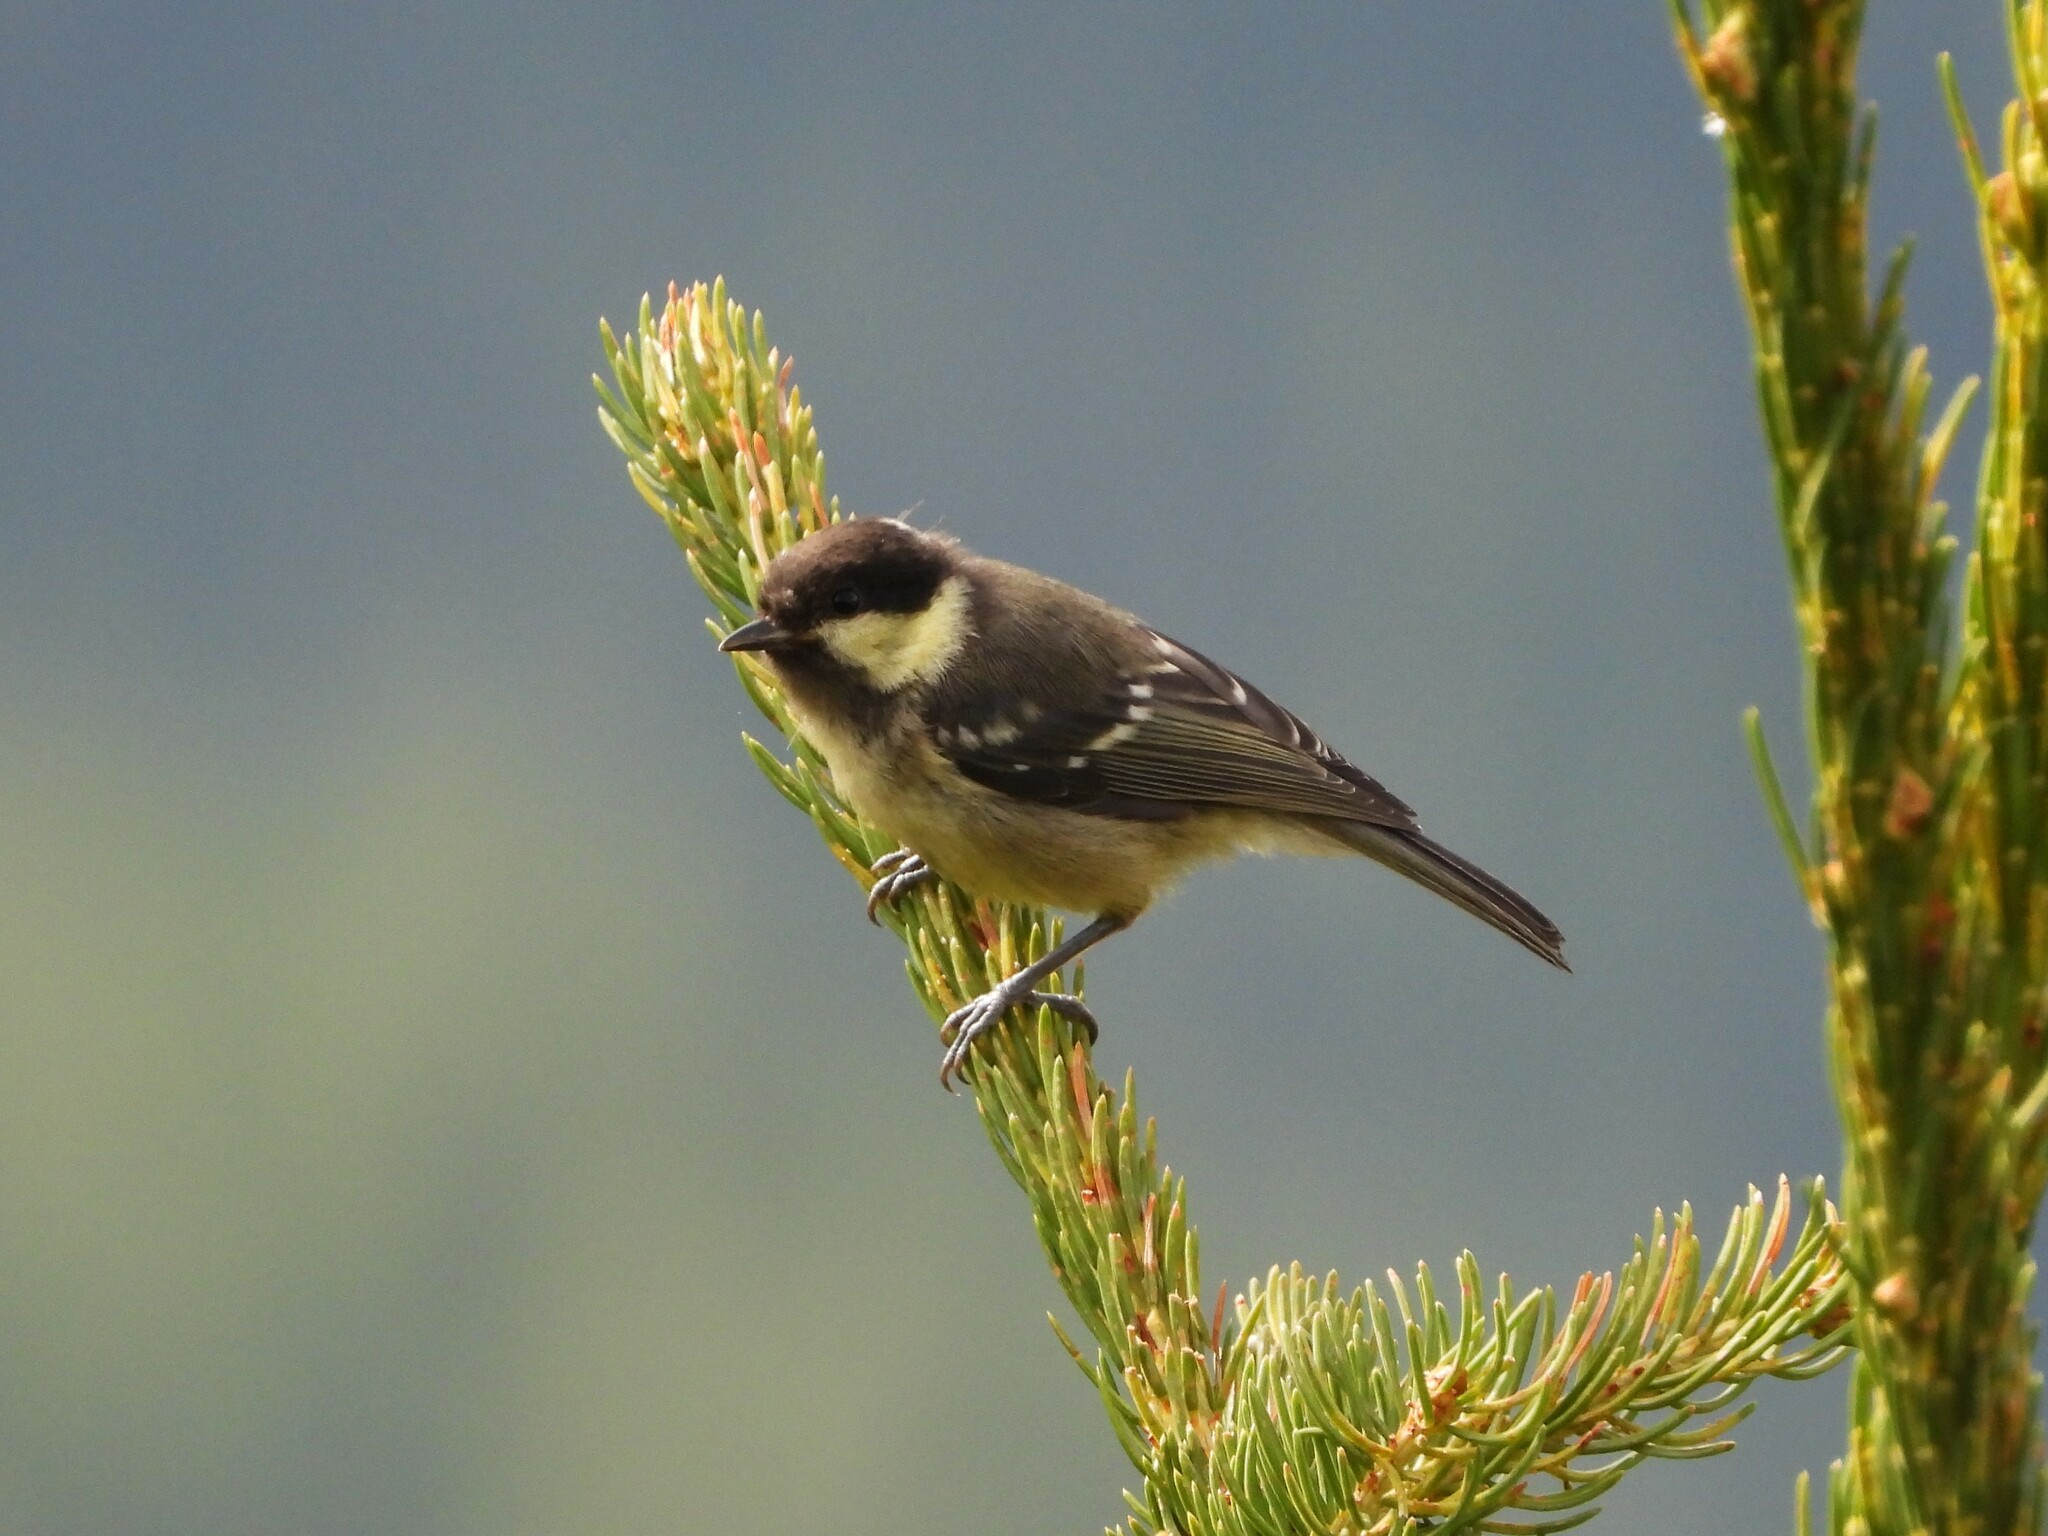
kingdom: Animalia
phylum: Chordata
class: Aves
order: Passeriformes
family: Paridae
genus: Periparus
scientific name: Periparus ater
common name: Coal tit
